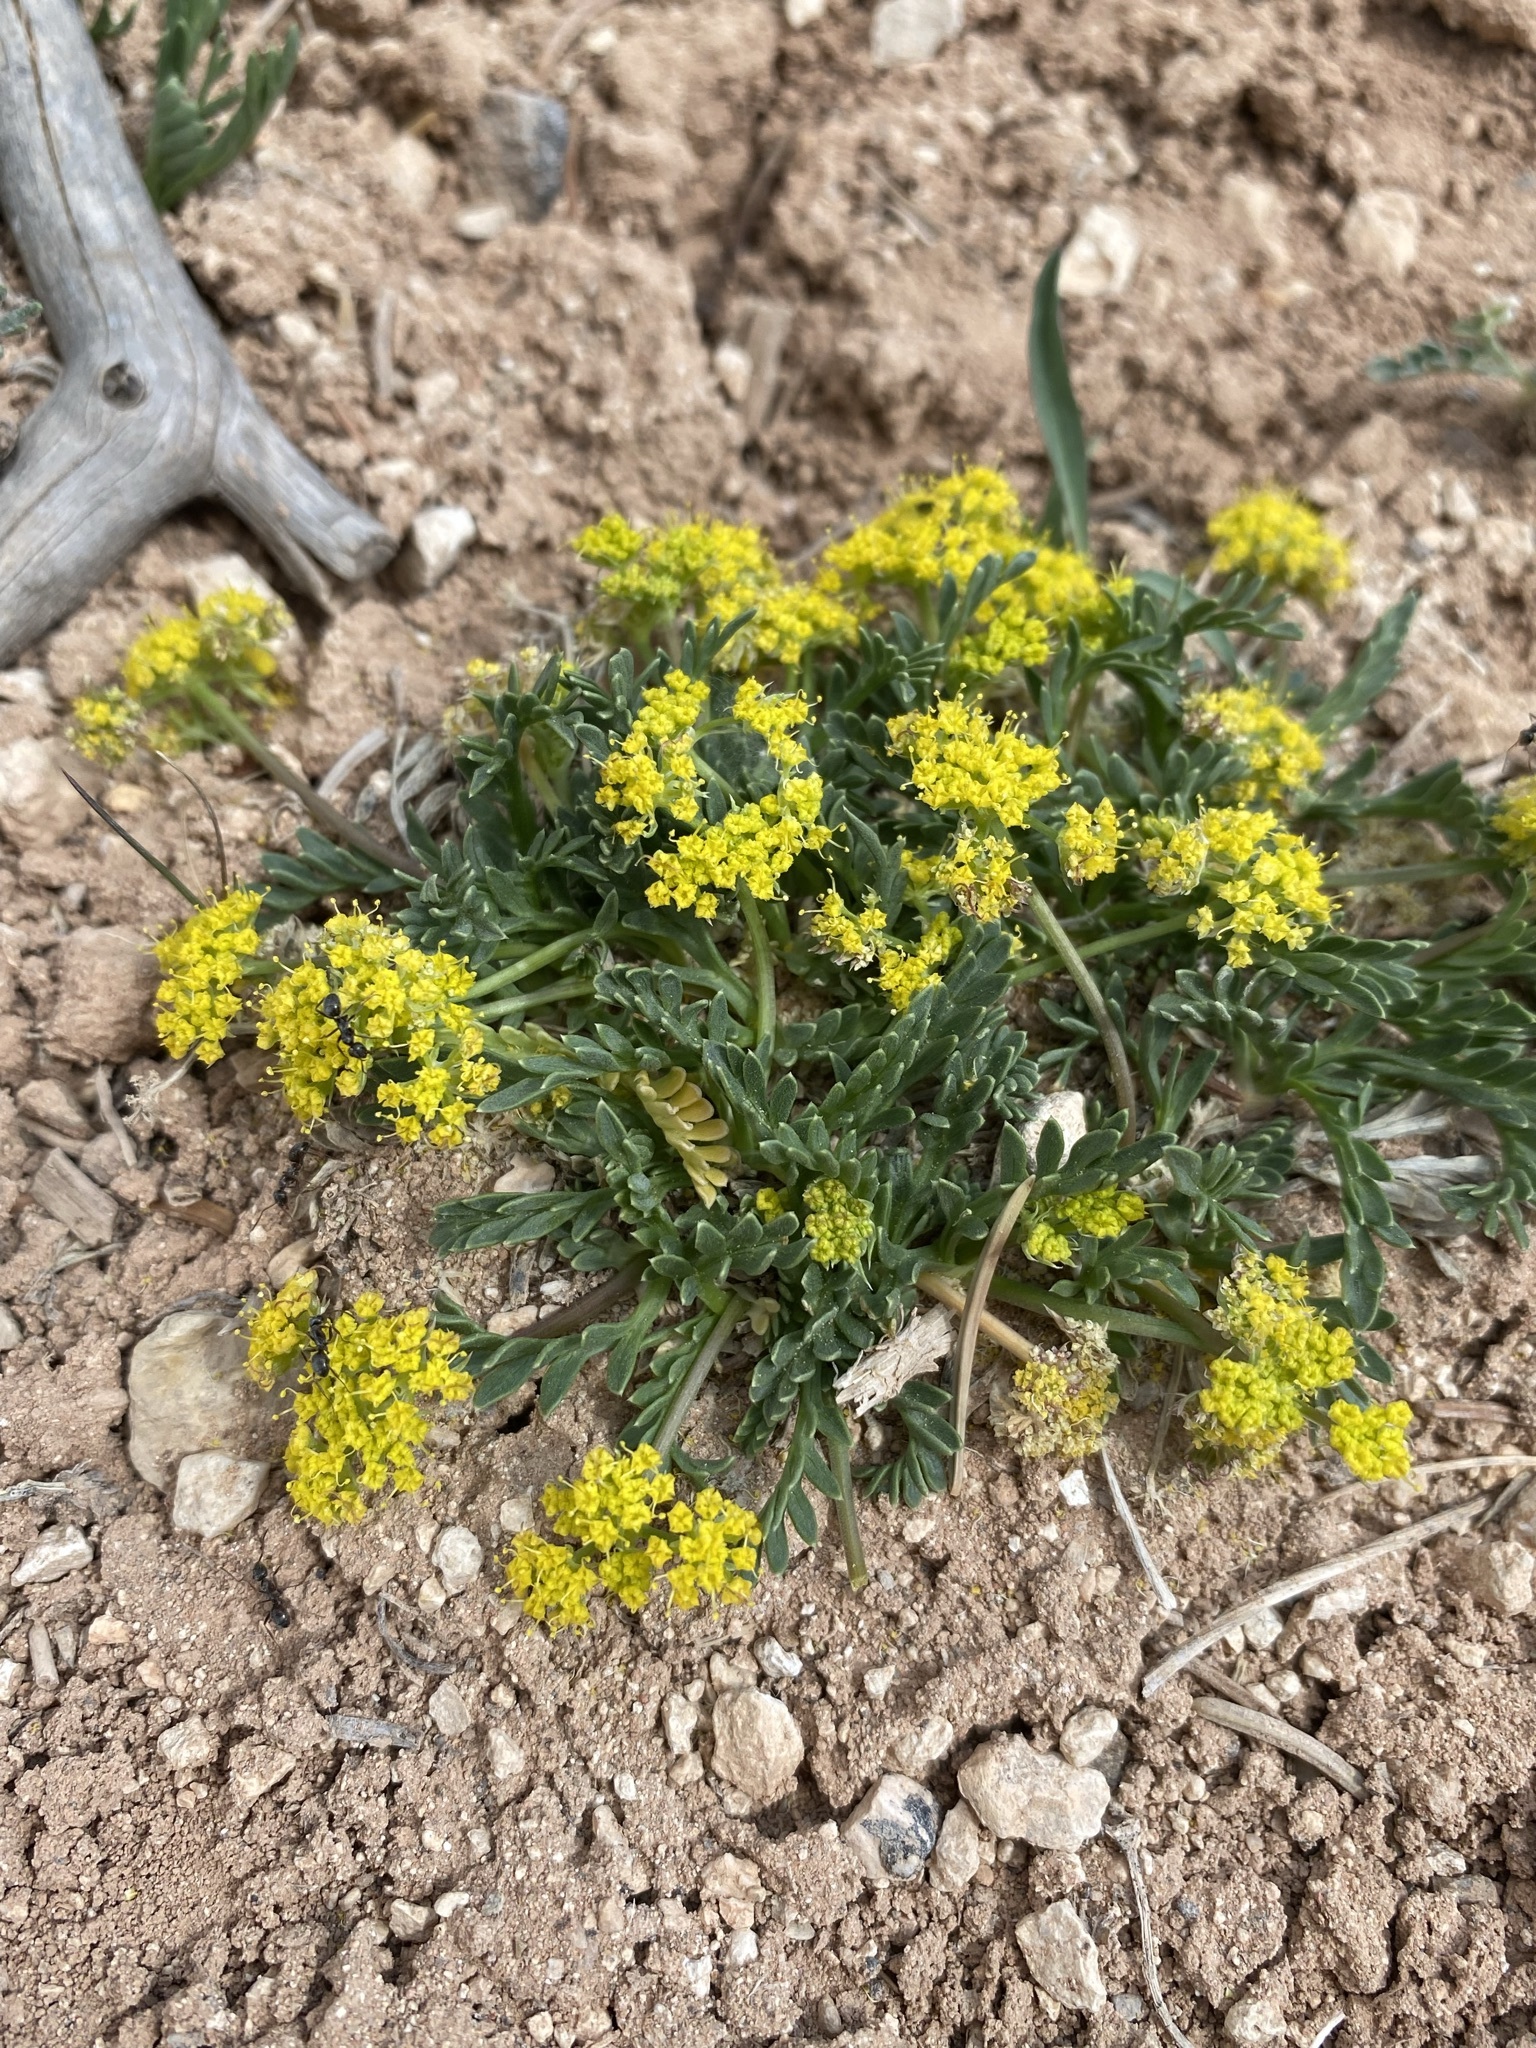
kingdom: Plantae
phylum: Tracheophyta
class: Magnoliopsida
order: Apiales
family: Apiaceae
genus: Lomatium
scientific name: Lomatium minimum
